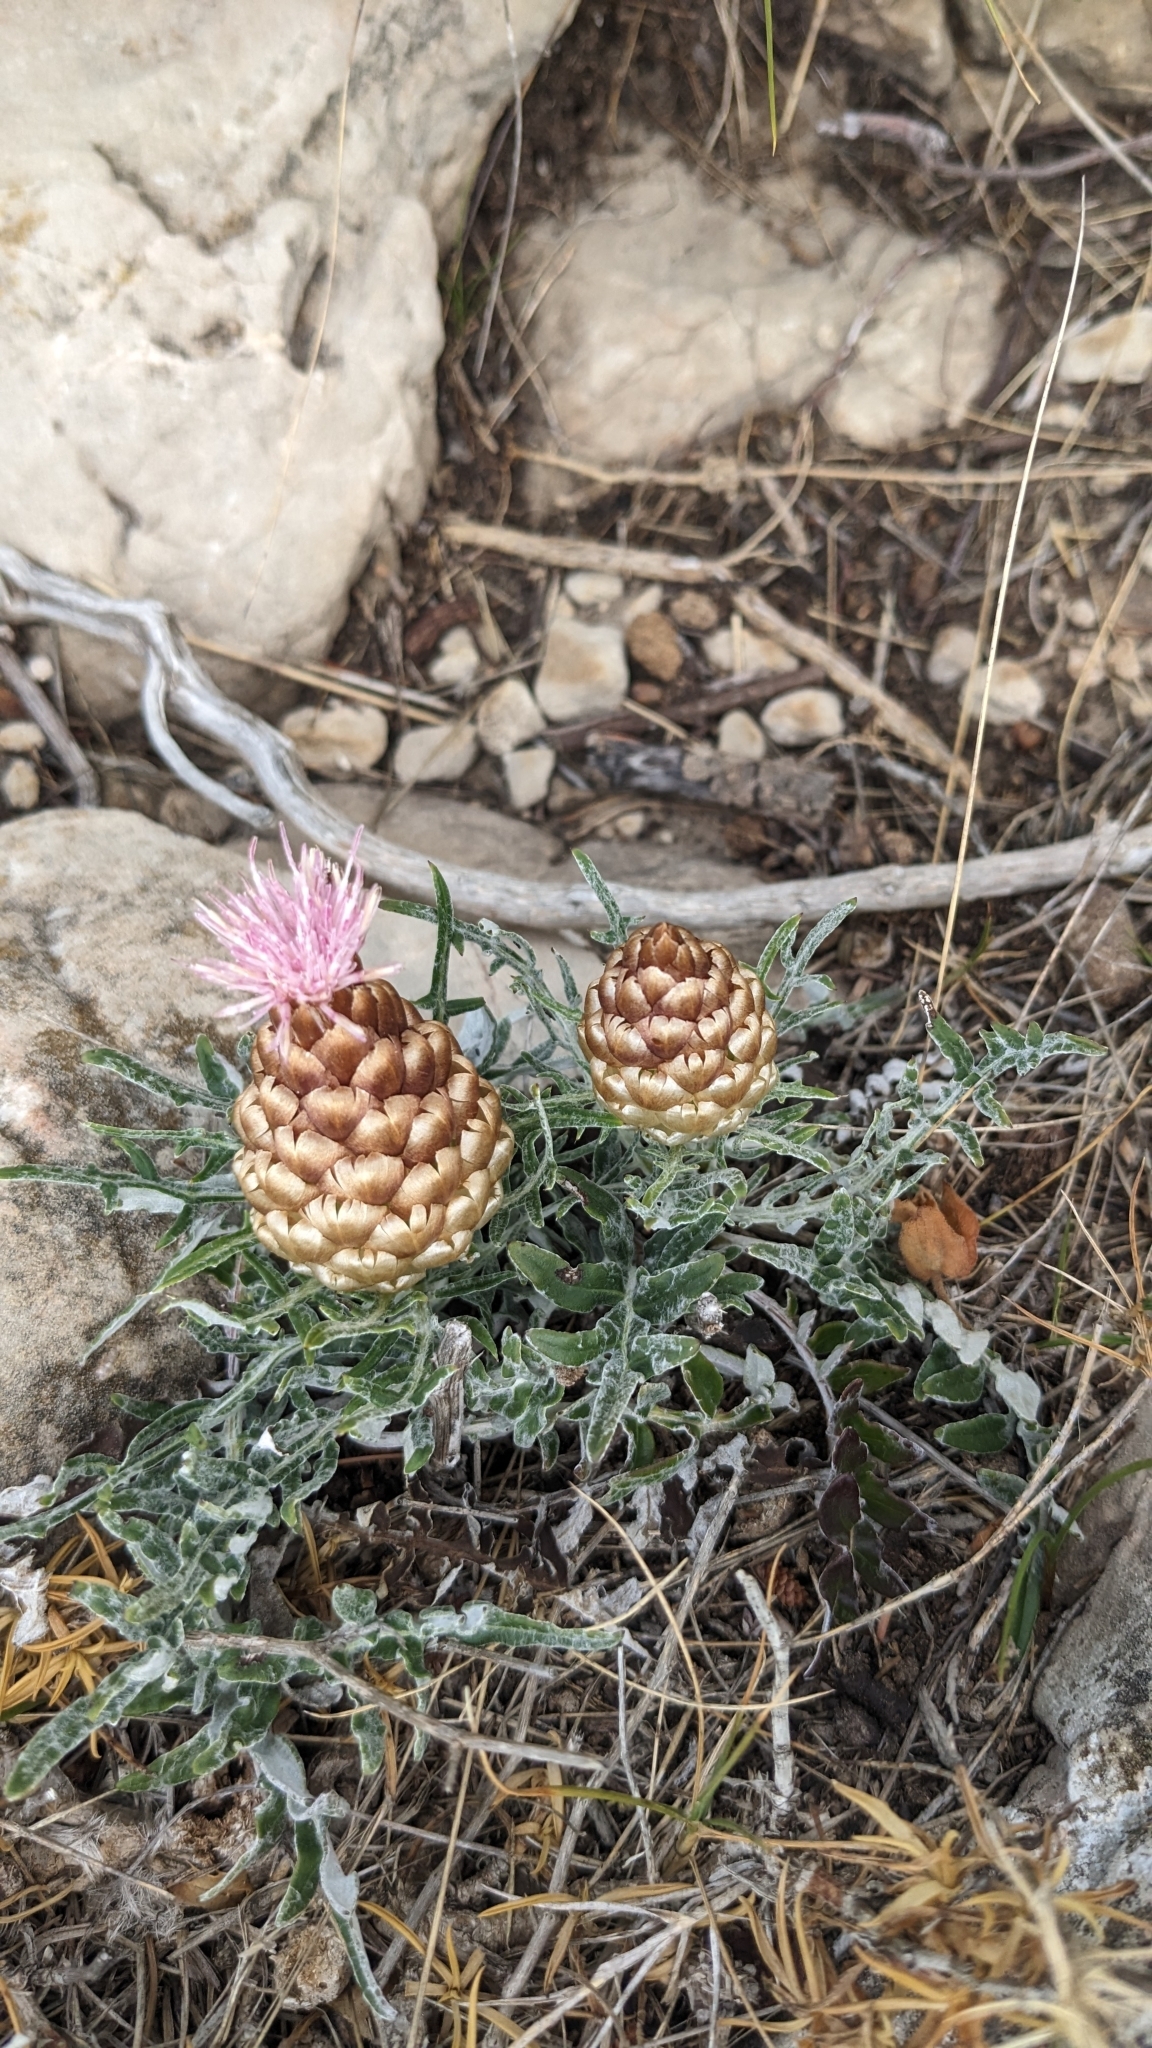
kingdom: Plantae
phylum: Tracheophyta
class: Magnoliopsida
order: Asterales
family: Asteraceae
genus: Leuzea
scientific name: Leuzea conifera
